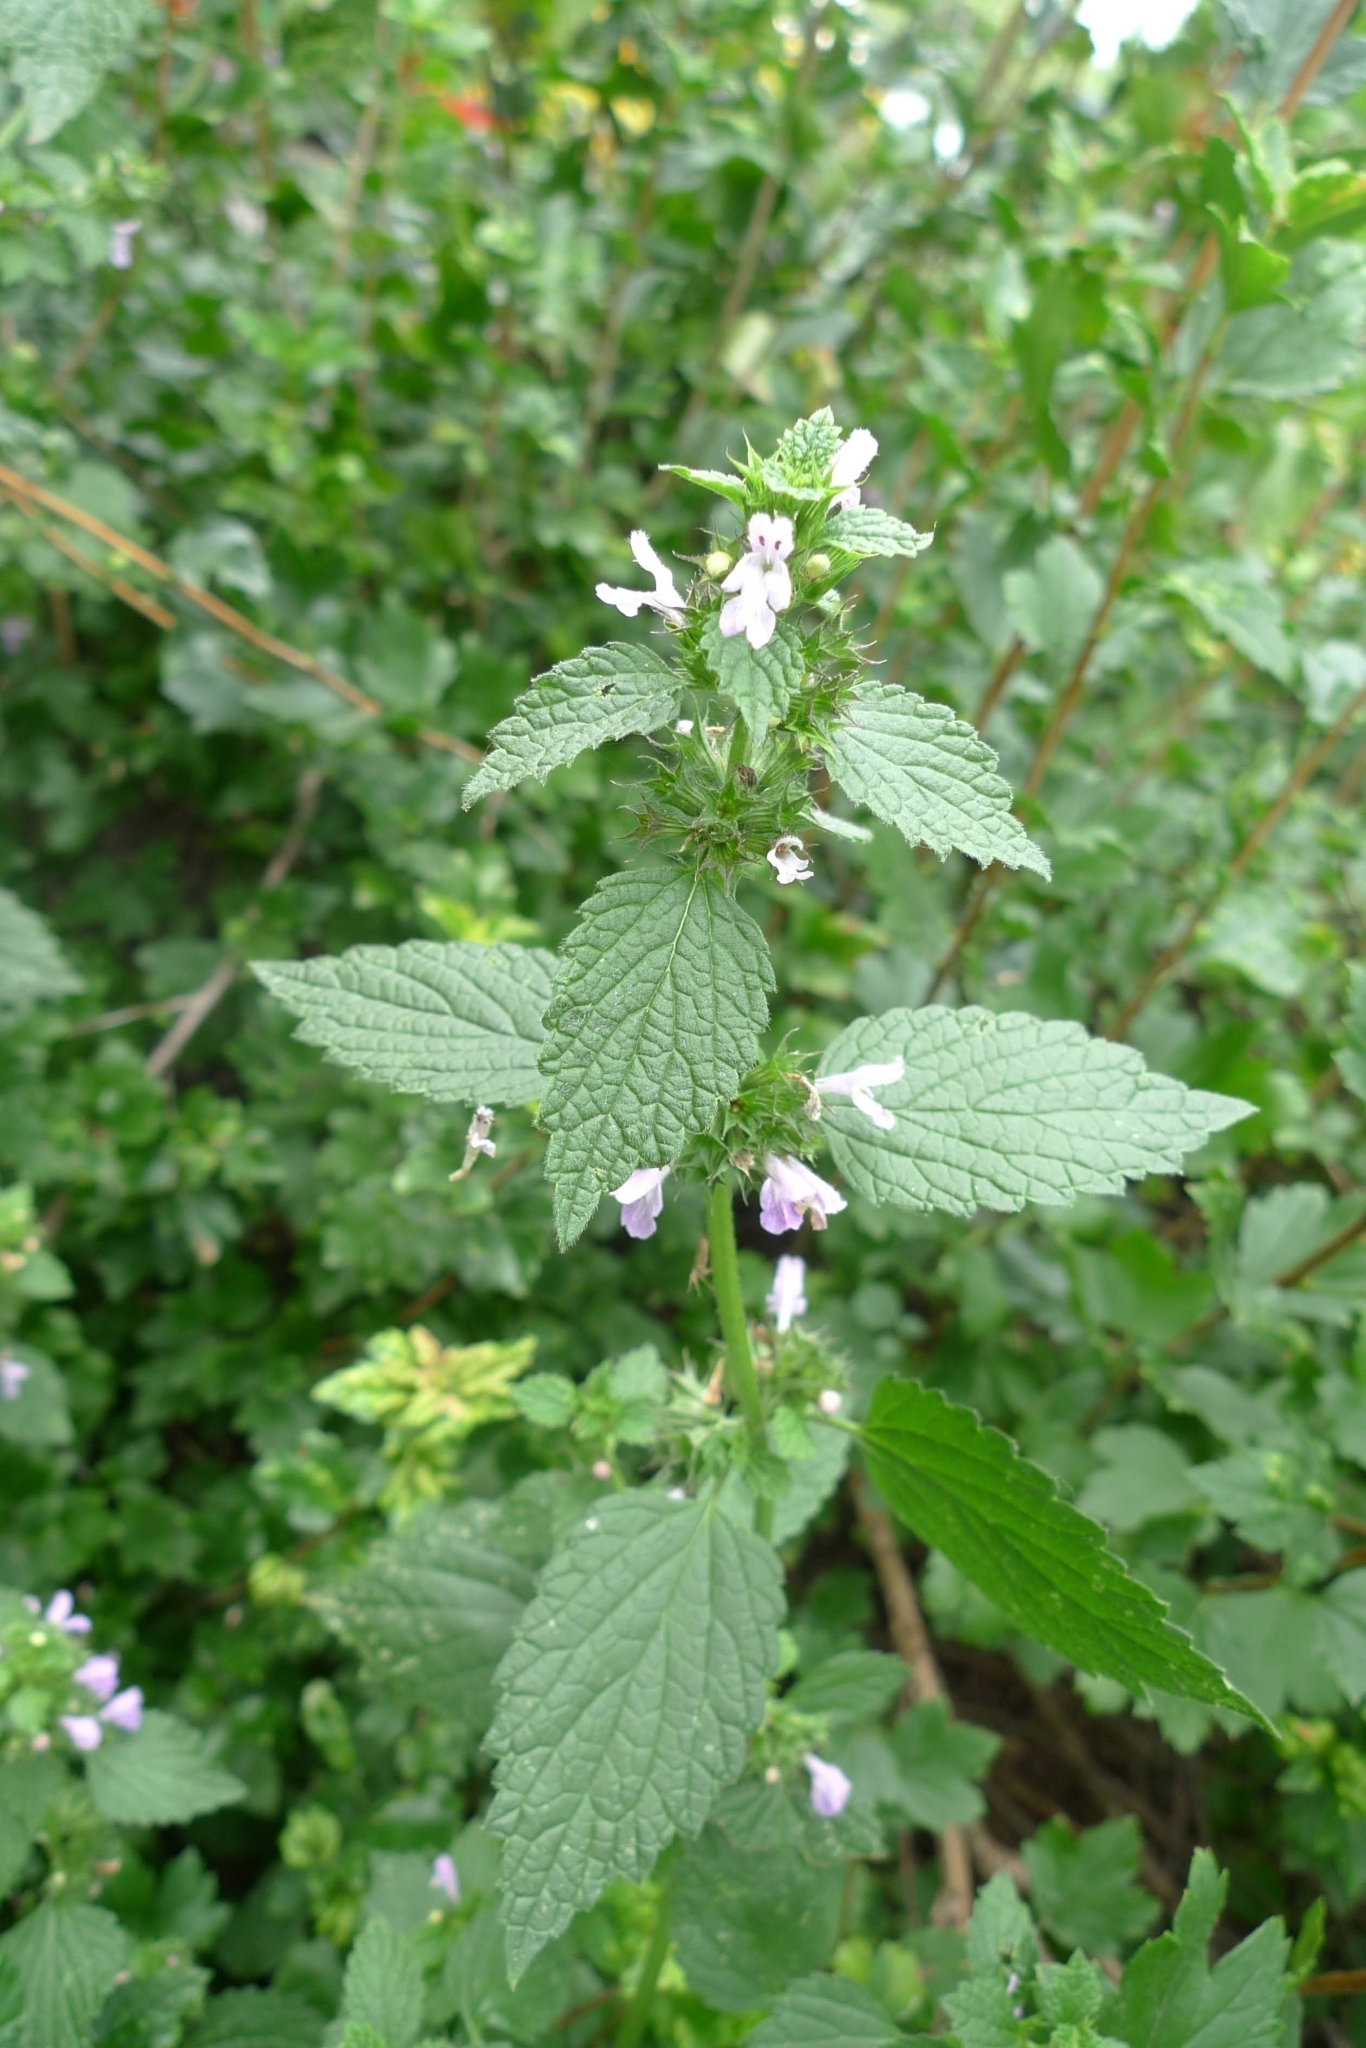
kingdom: Plantae
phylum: Tracheophyta
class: Magnoliopsida
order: Lamiales
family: Lamiaceae
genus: Ballota
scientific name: Ballota nigra
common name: Black horehound
